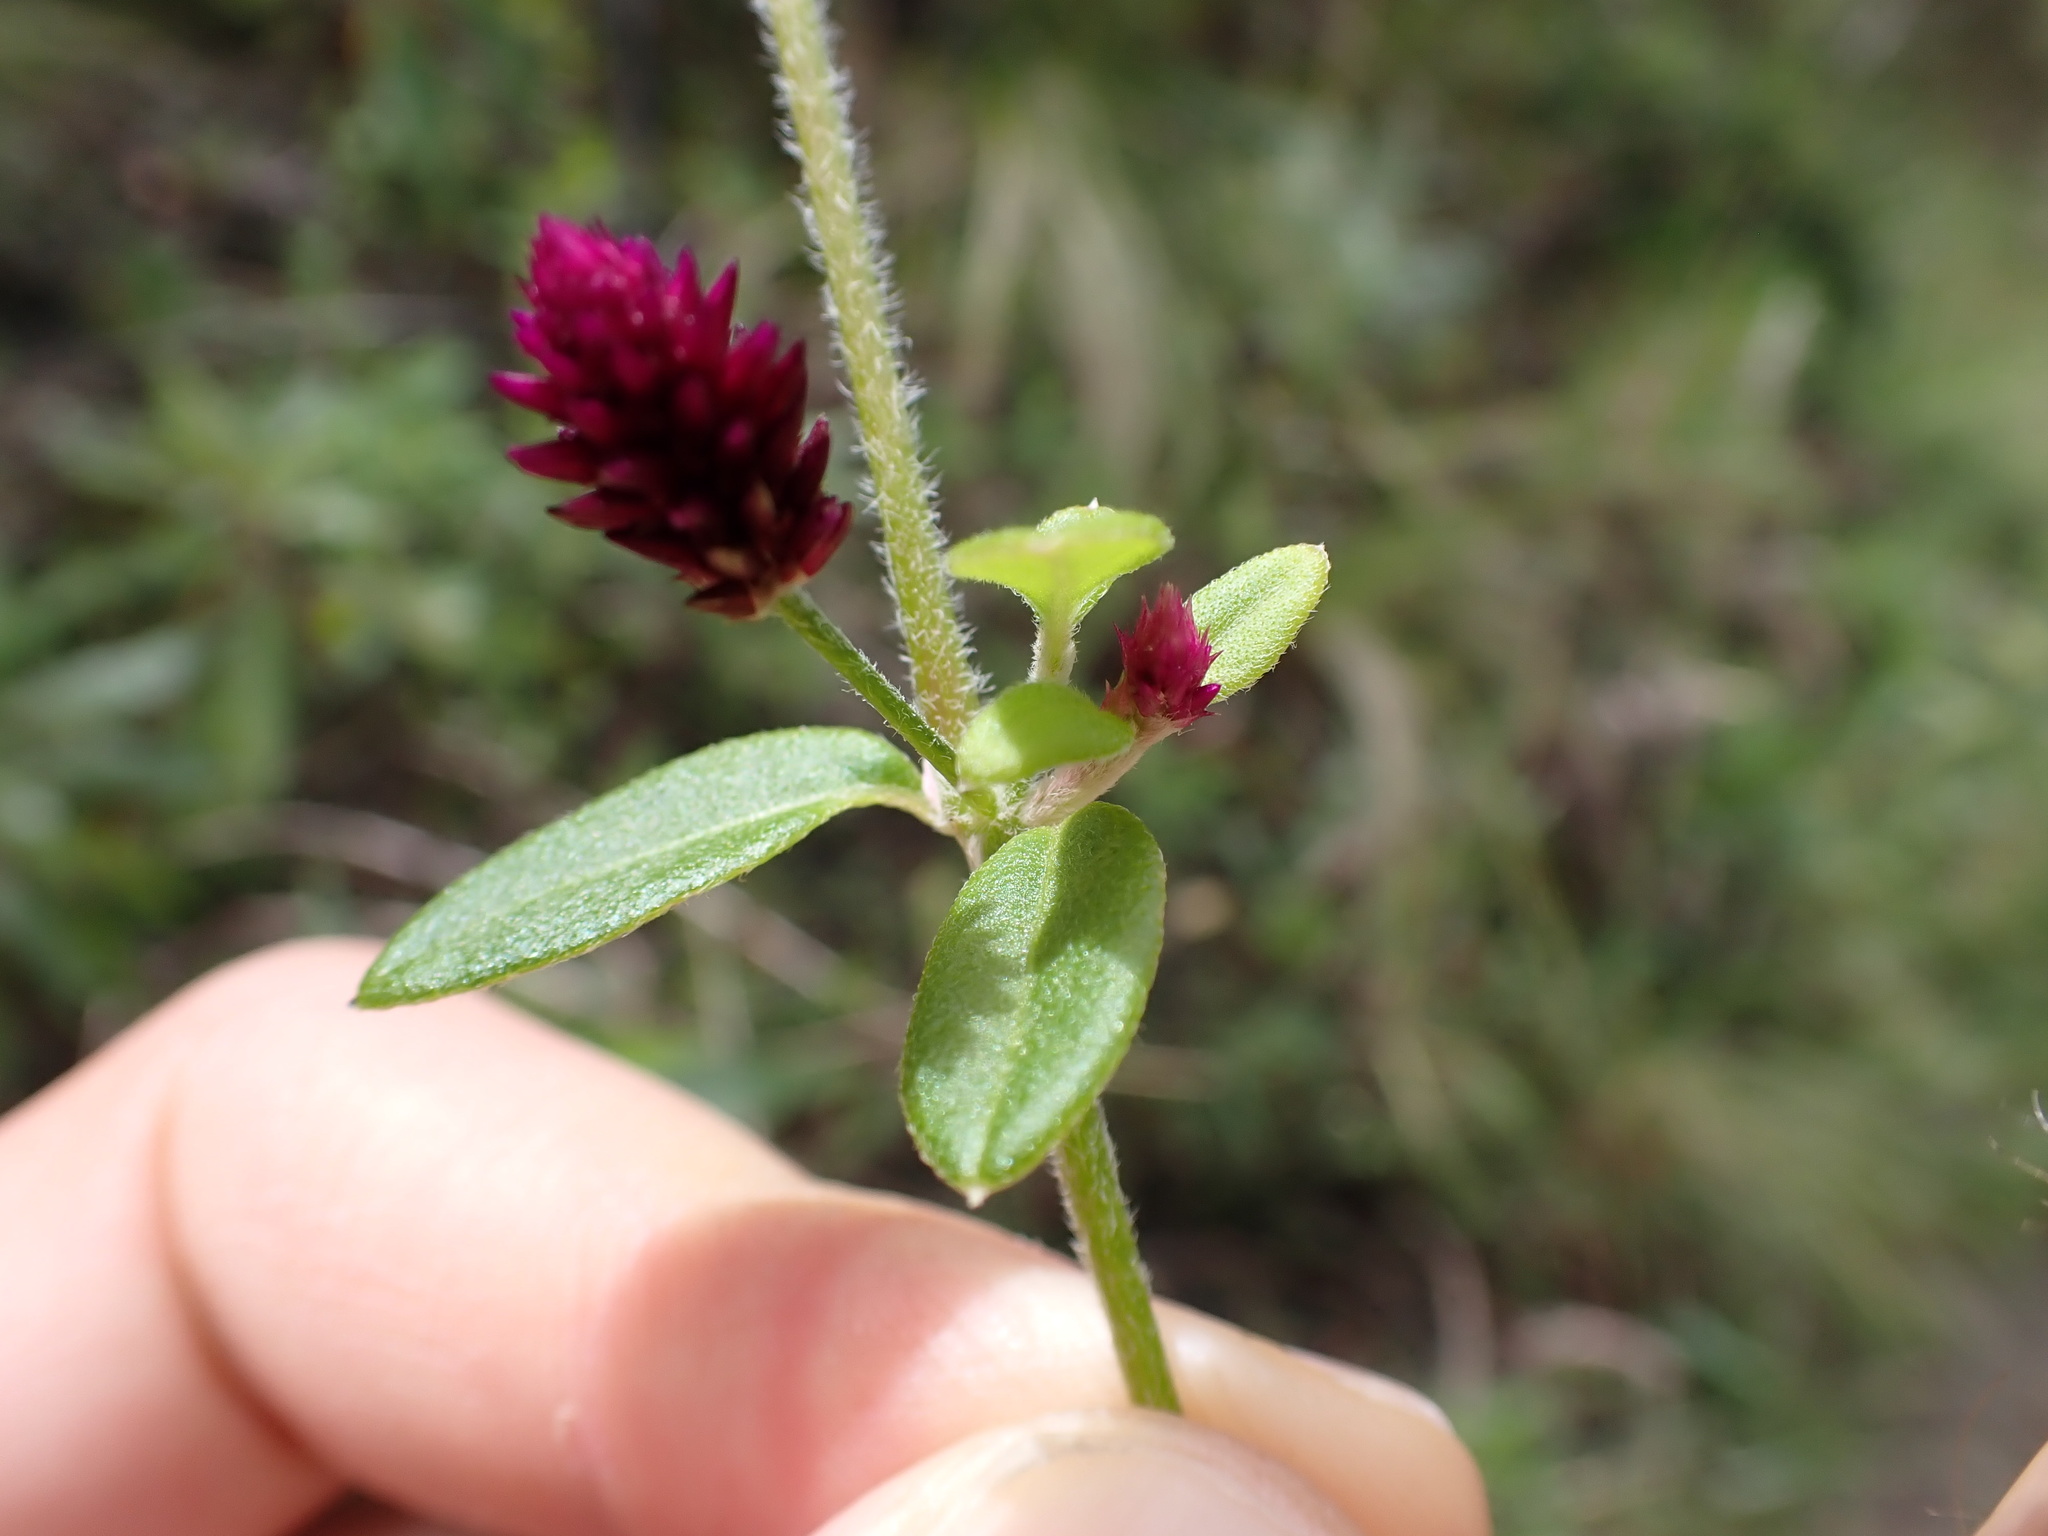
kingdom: Plantae
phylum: Tracheophyta
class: Magnoliopsida
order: Caryophyllales
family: Amaranthaceae
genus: Alternanthera
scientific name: Alternanthera porrigens
